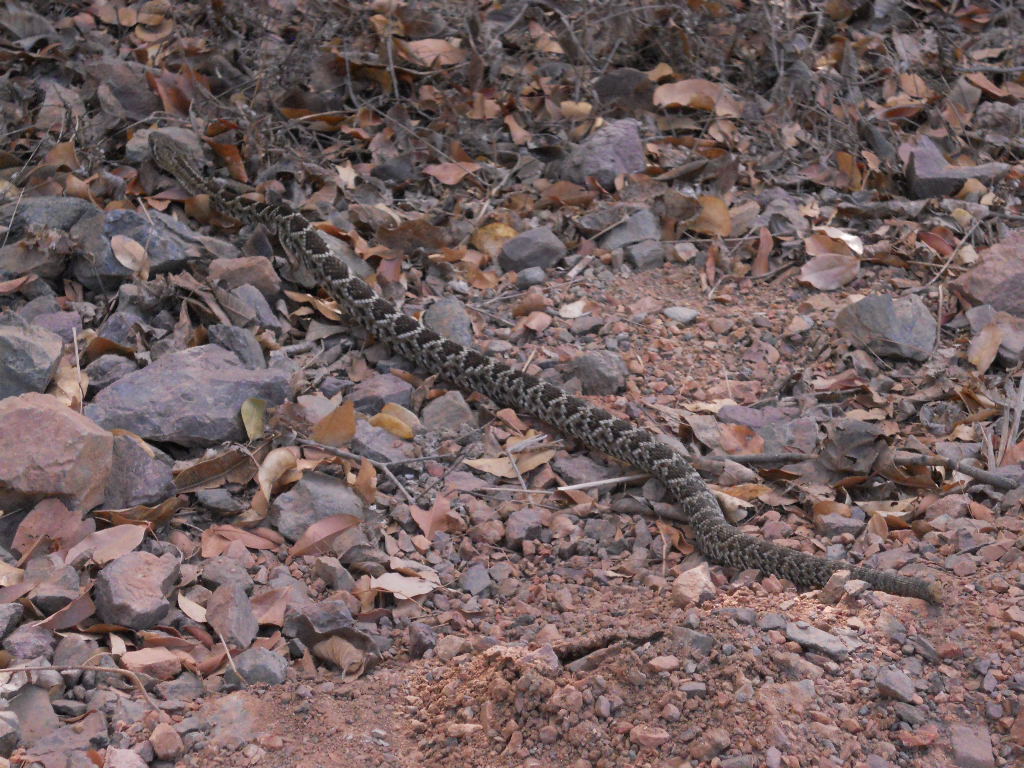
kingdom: Animalia
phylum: Chordata
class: Squamata
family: Viperidae
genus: Crotalus
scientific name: Crotalus basiliscus
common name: Basilisk rattlesnake
